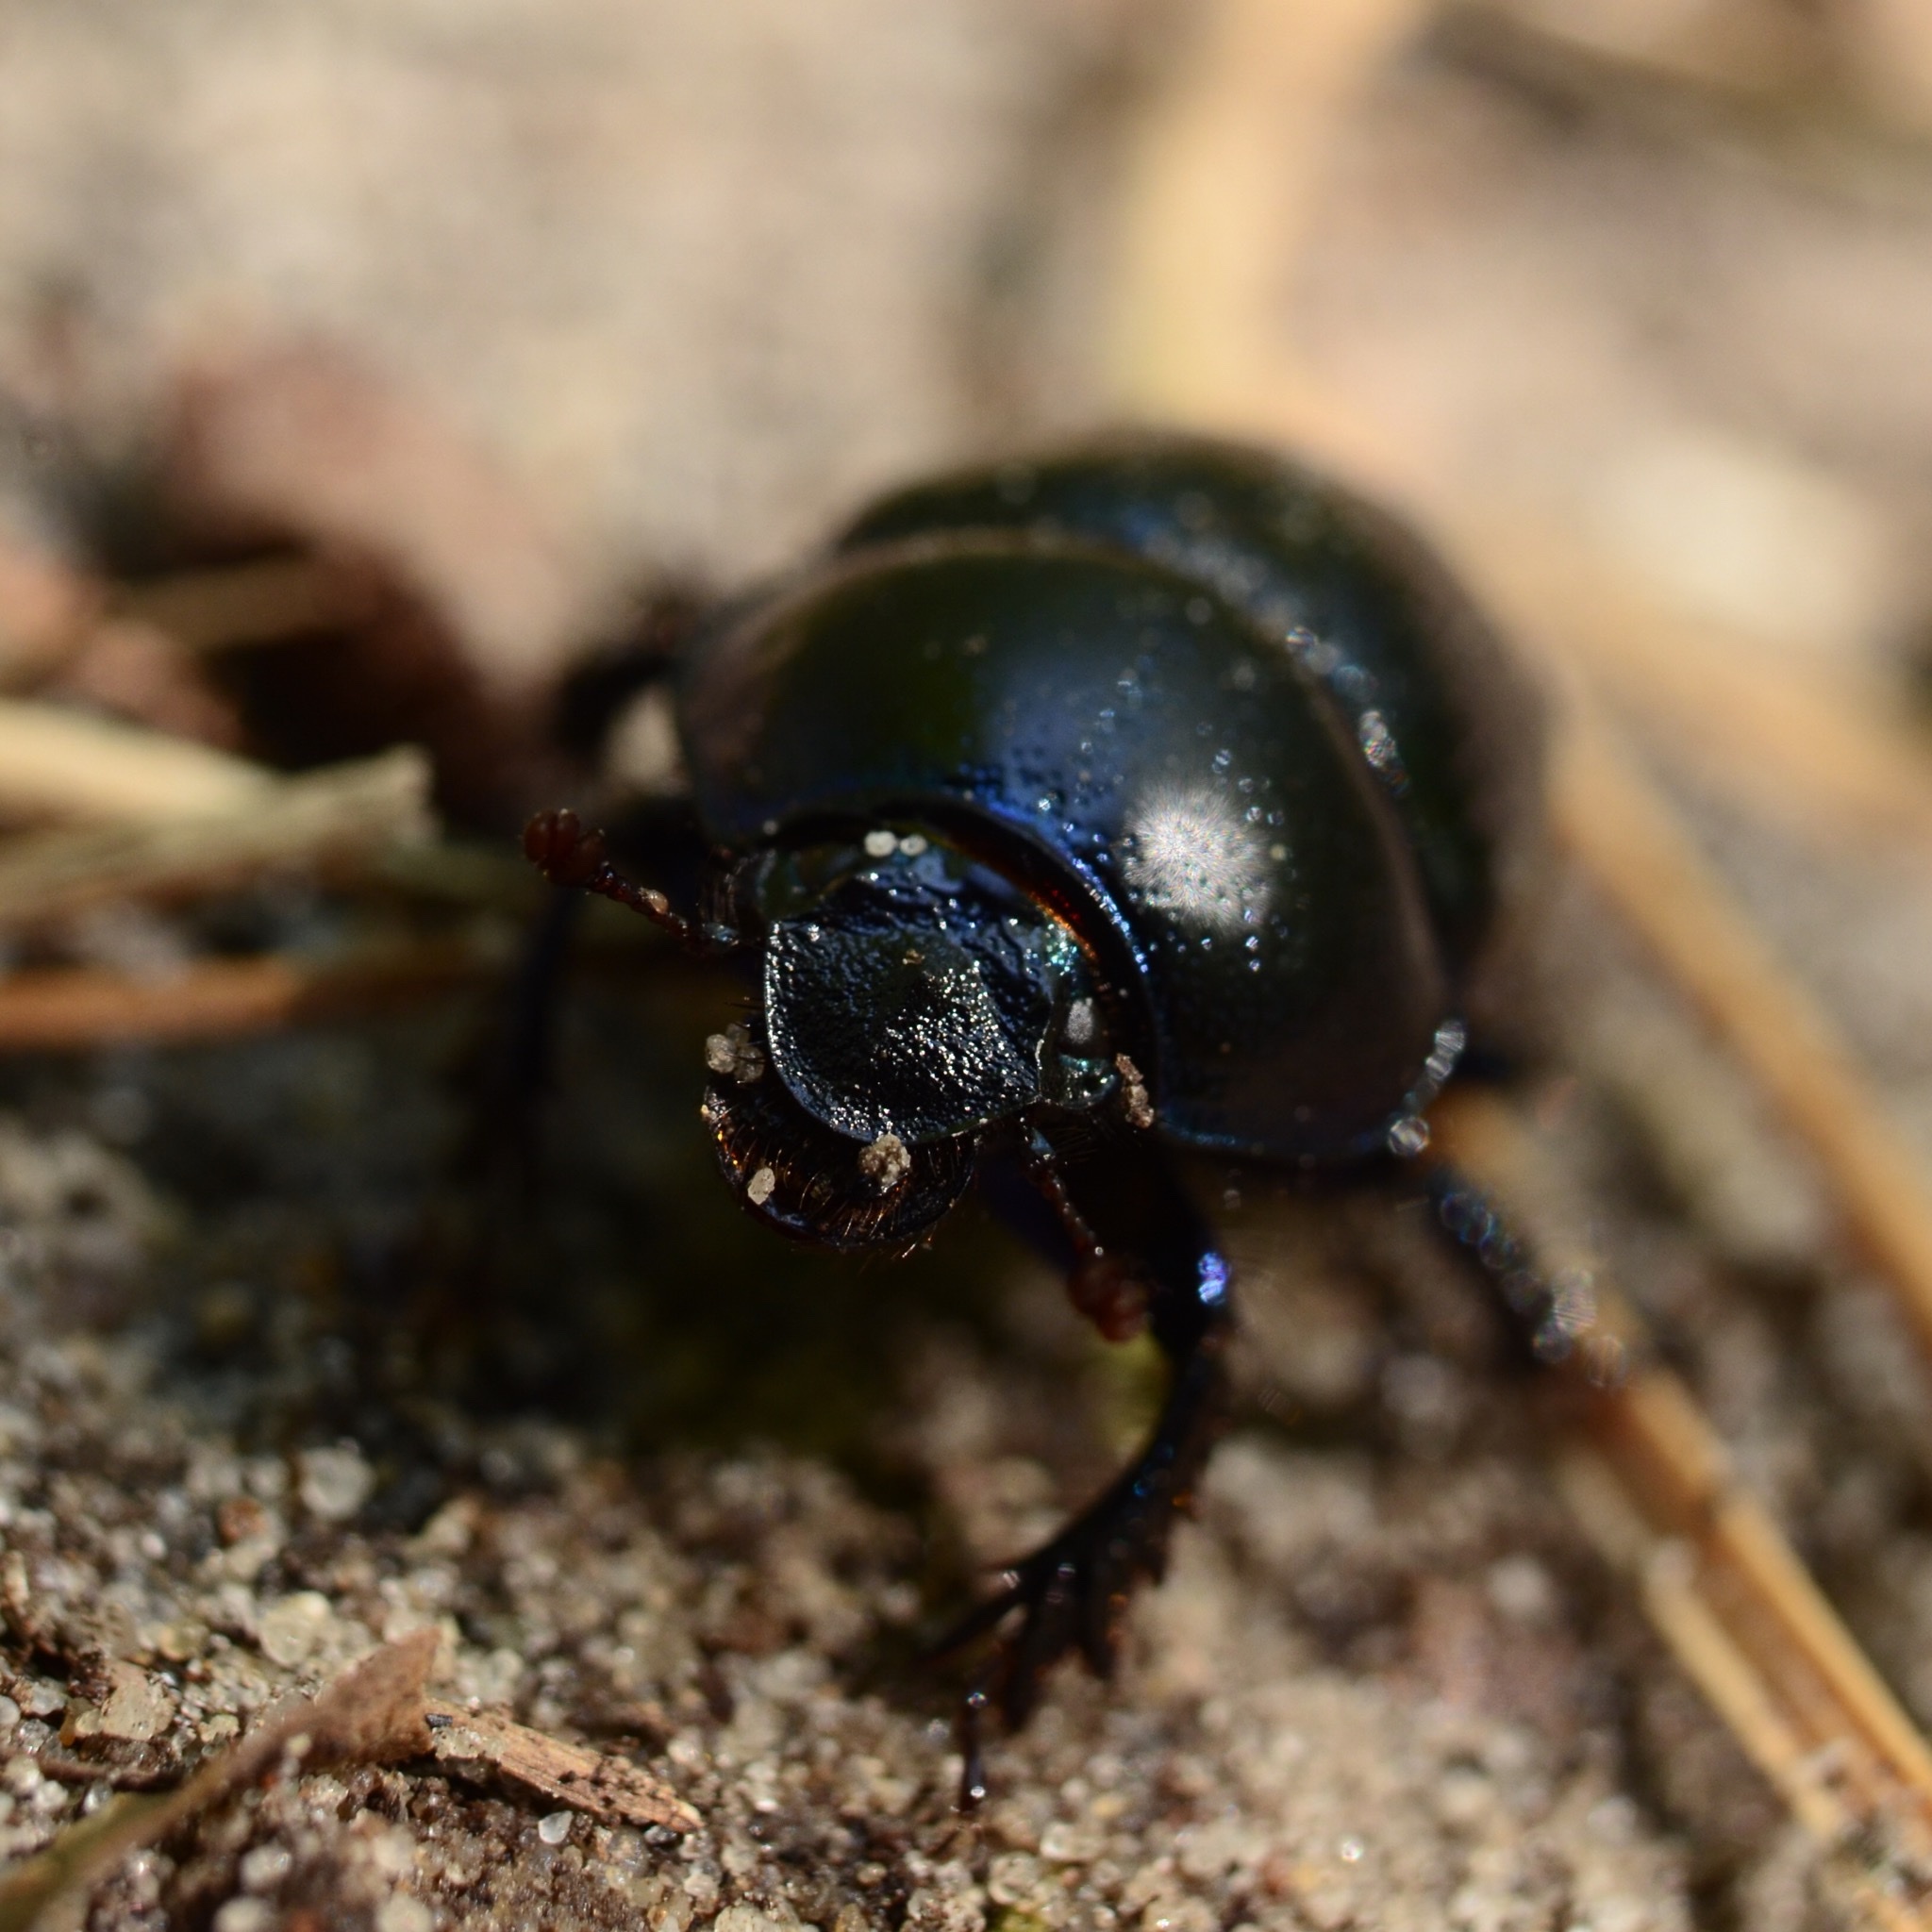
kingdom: Animalia
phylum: Arthropoda
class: Insecta
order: Coleoptera
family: Geotrupidae
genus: Anoplotrupes
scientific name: Anoplotrupes stercorosus
